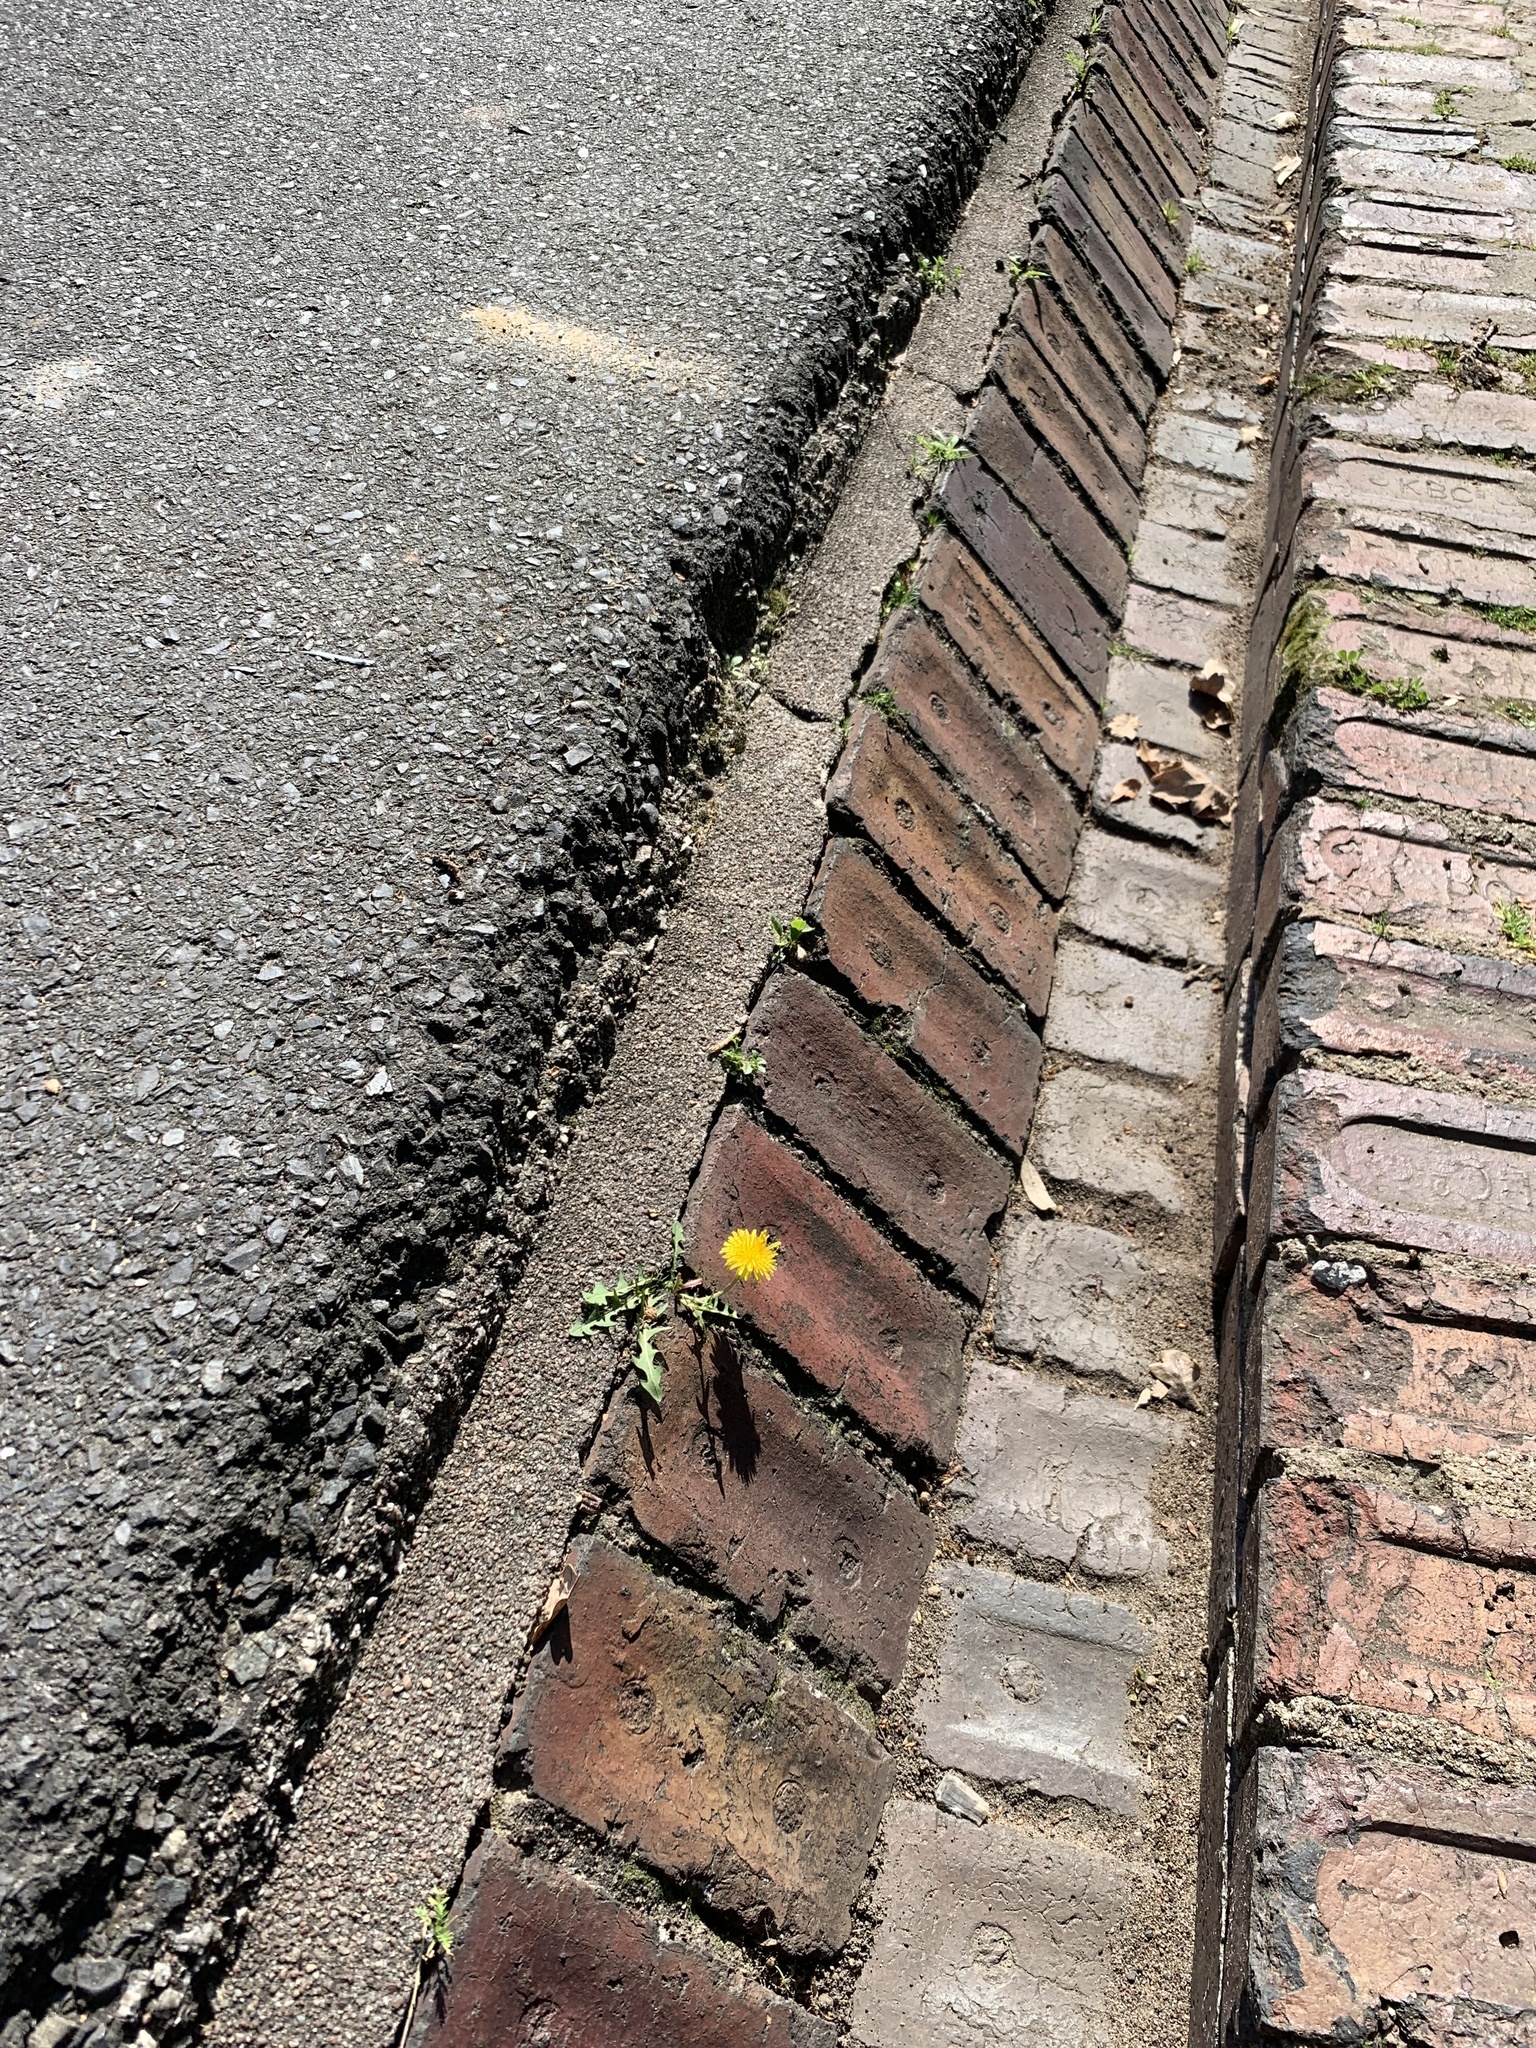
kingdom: Plantae
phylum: Tracheophyta
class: Magnoliopsida
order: Asterales
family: Asteraceae
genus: Taraxacum
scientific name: Taraxacum officinale
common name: Common dandelion
